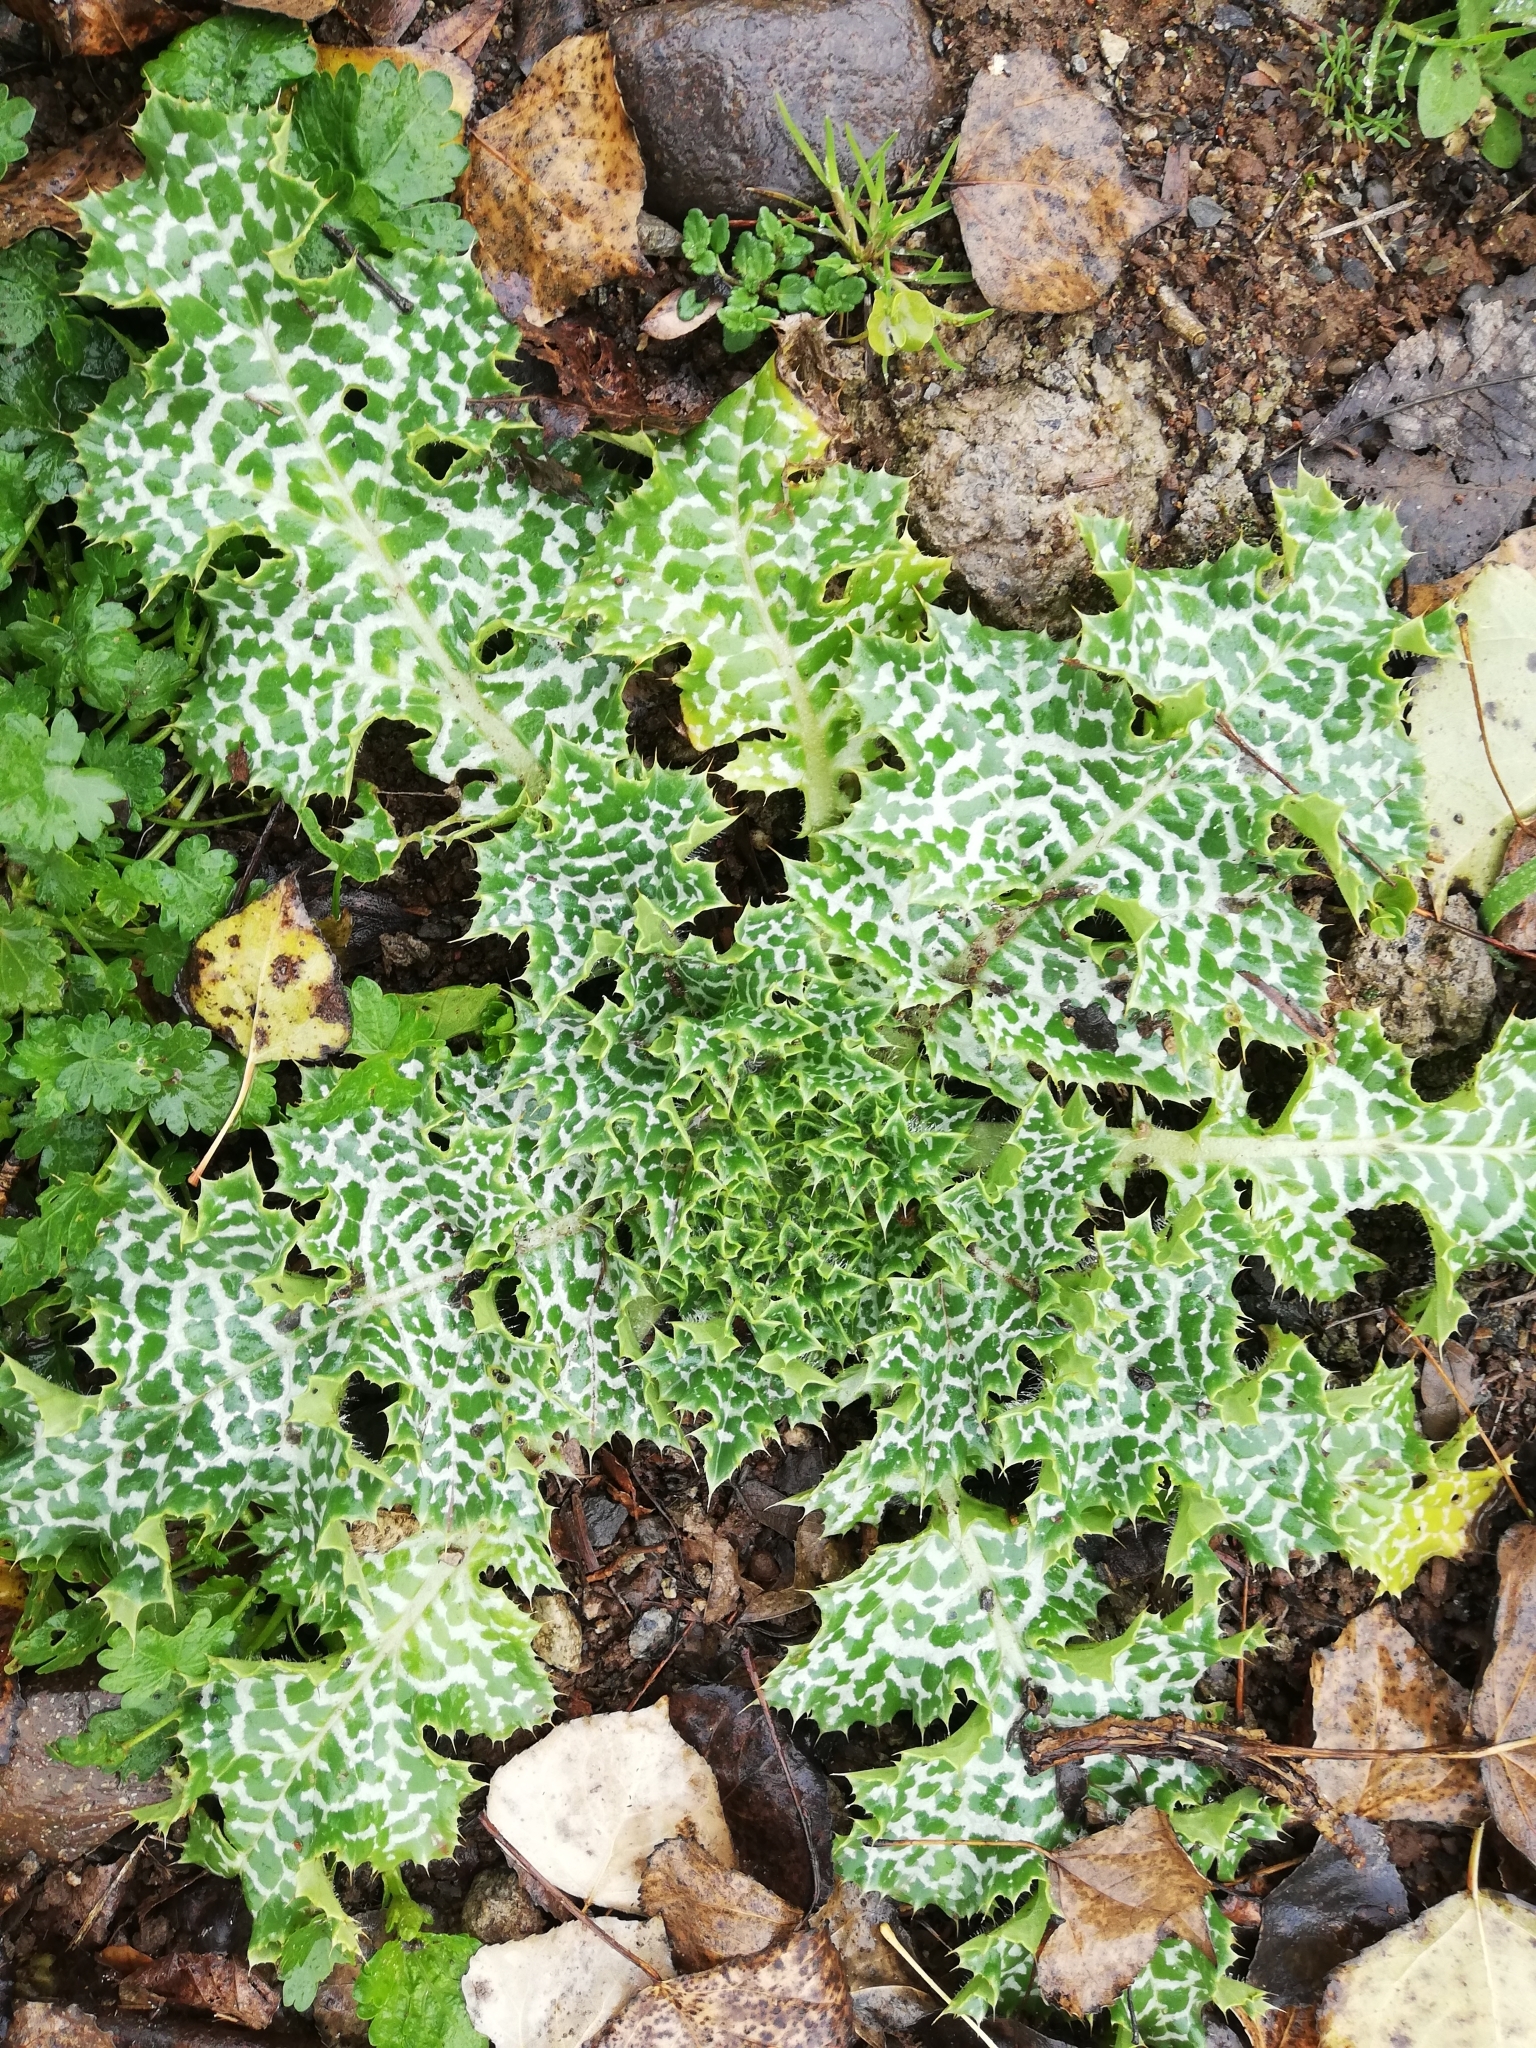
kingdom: Plantae
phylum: Tracheophyta
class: Magnoliopsida
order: Asterales
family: Asteraceae
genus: Silybum
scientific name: Silybum marianum
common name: Milk thistle
